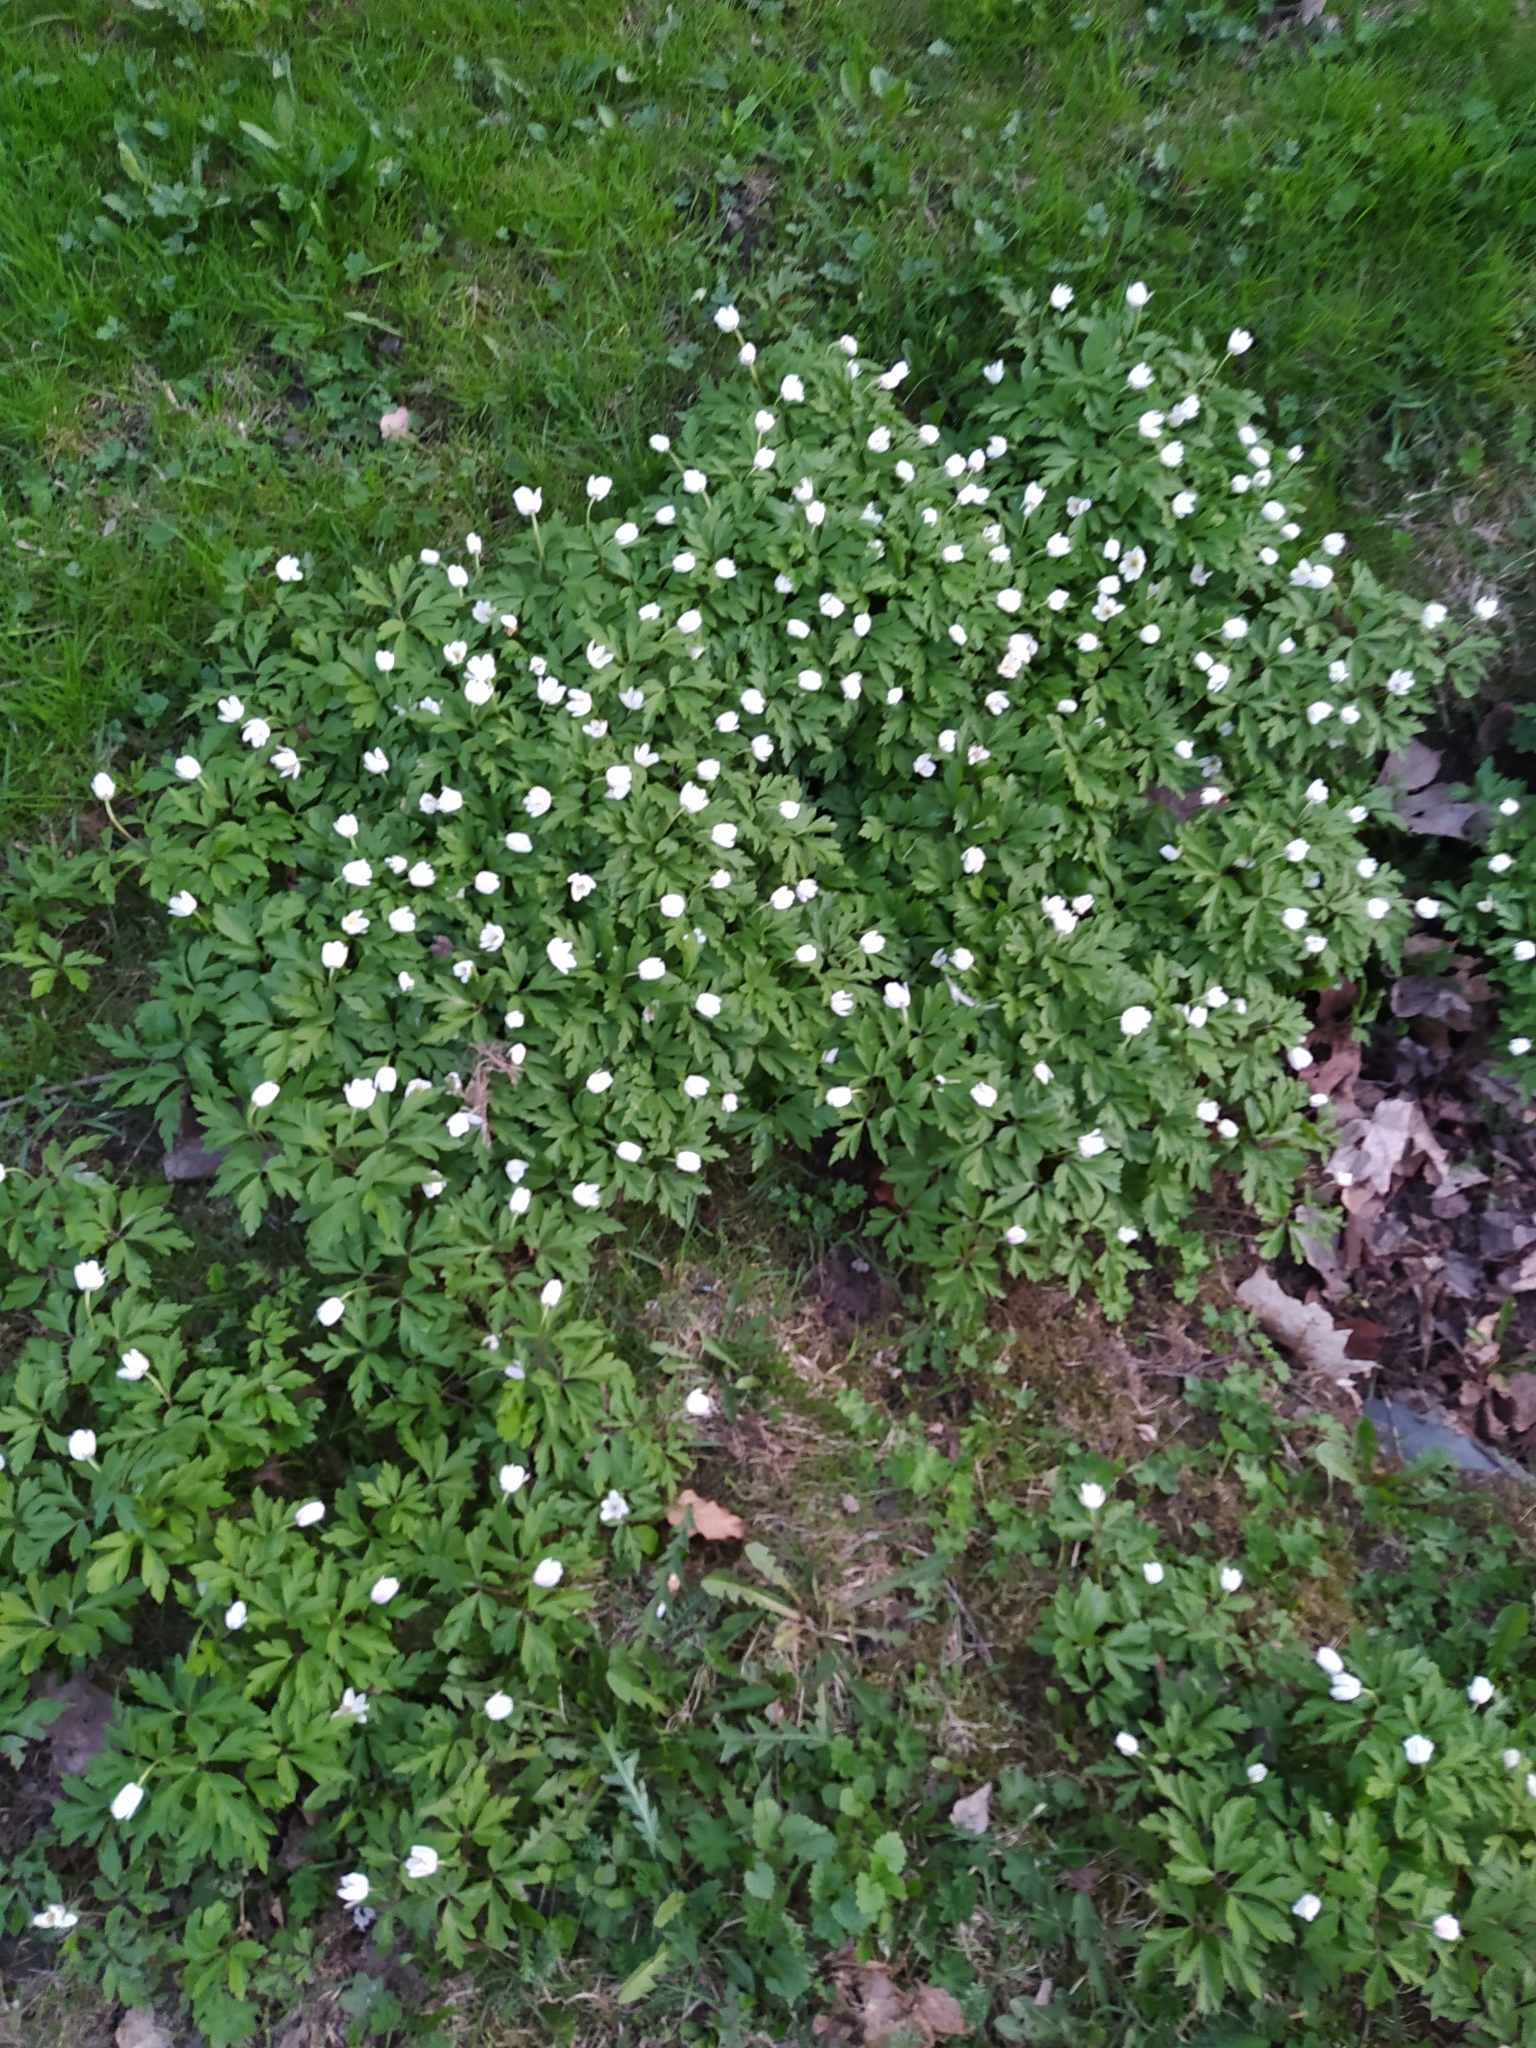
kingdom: Plantae
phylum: Tracheophyta
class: Magnoliopsida
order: Ranunculales
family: Ranunculaceae
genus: Anemone
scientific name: Anemone nemorosa
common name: Wood anemone
